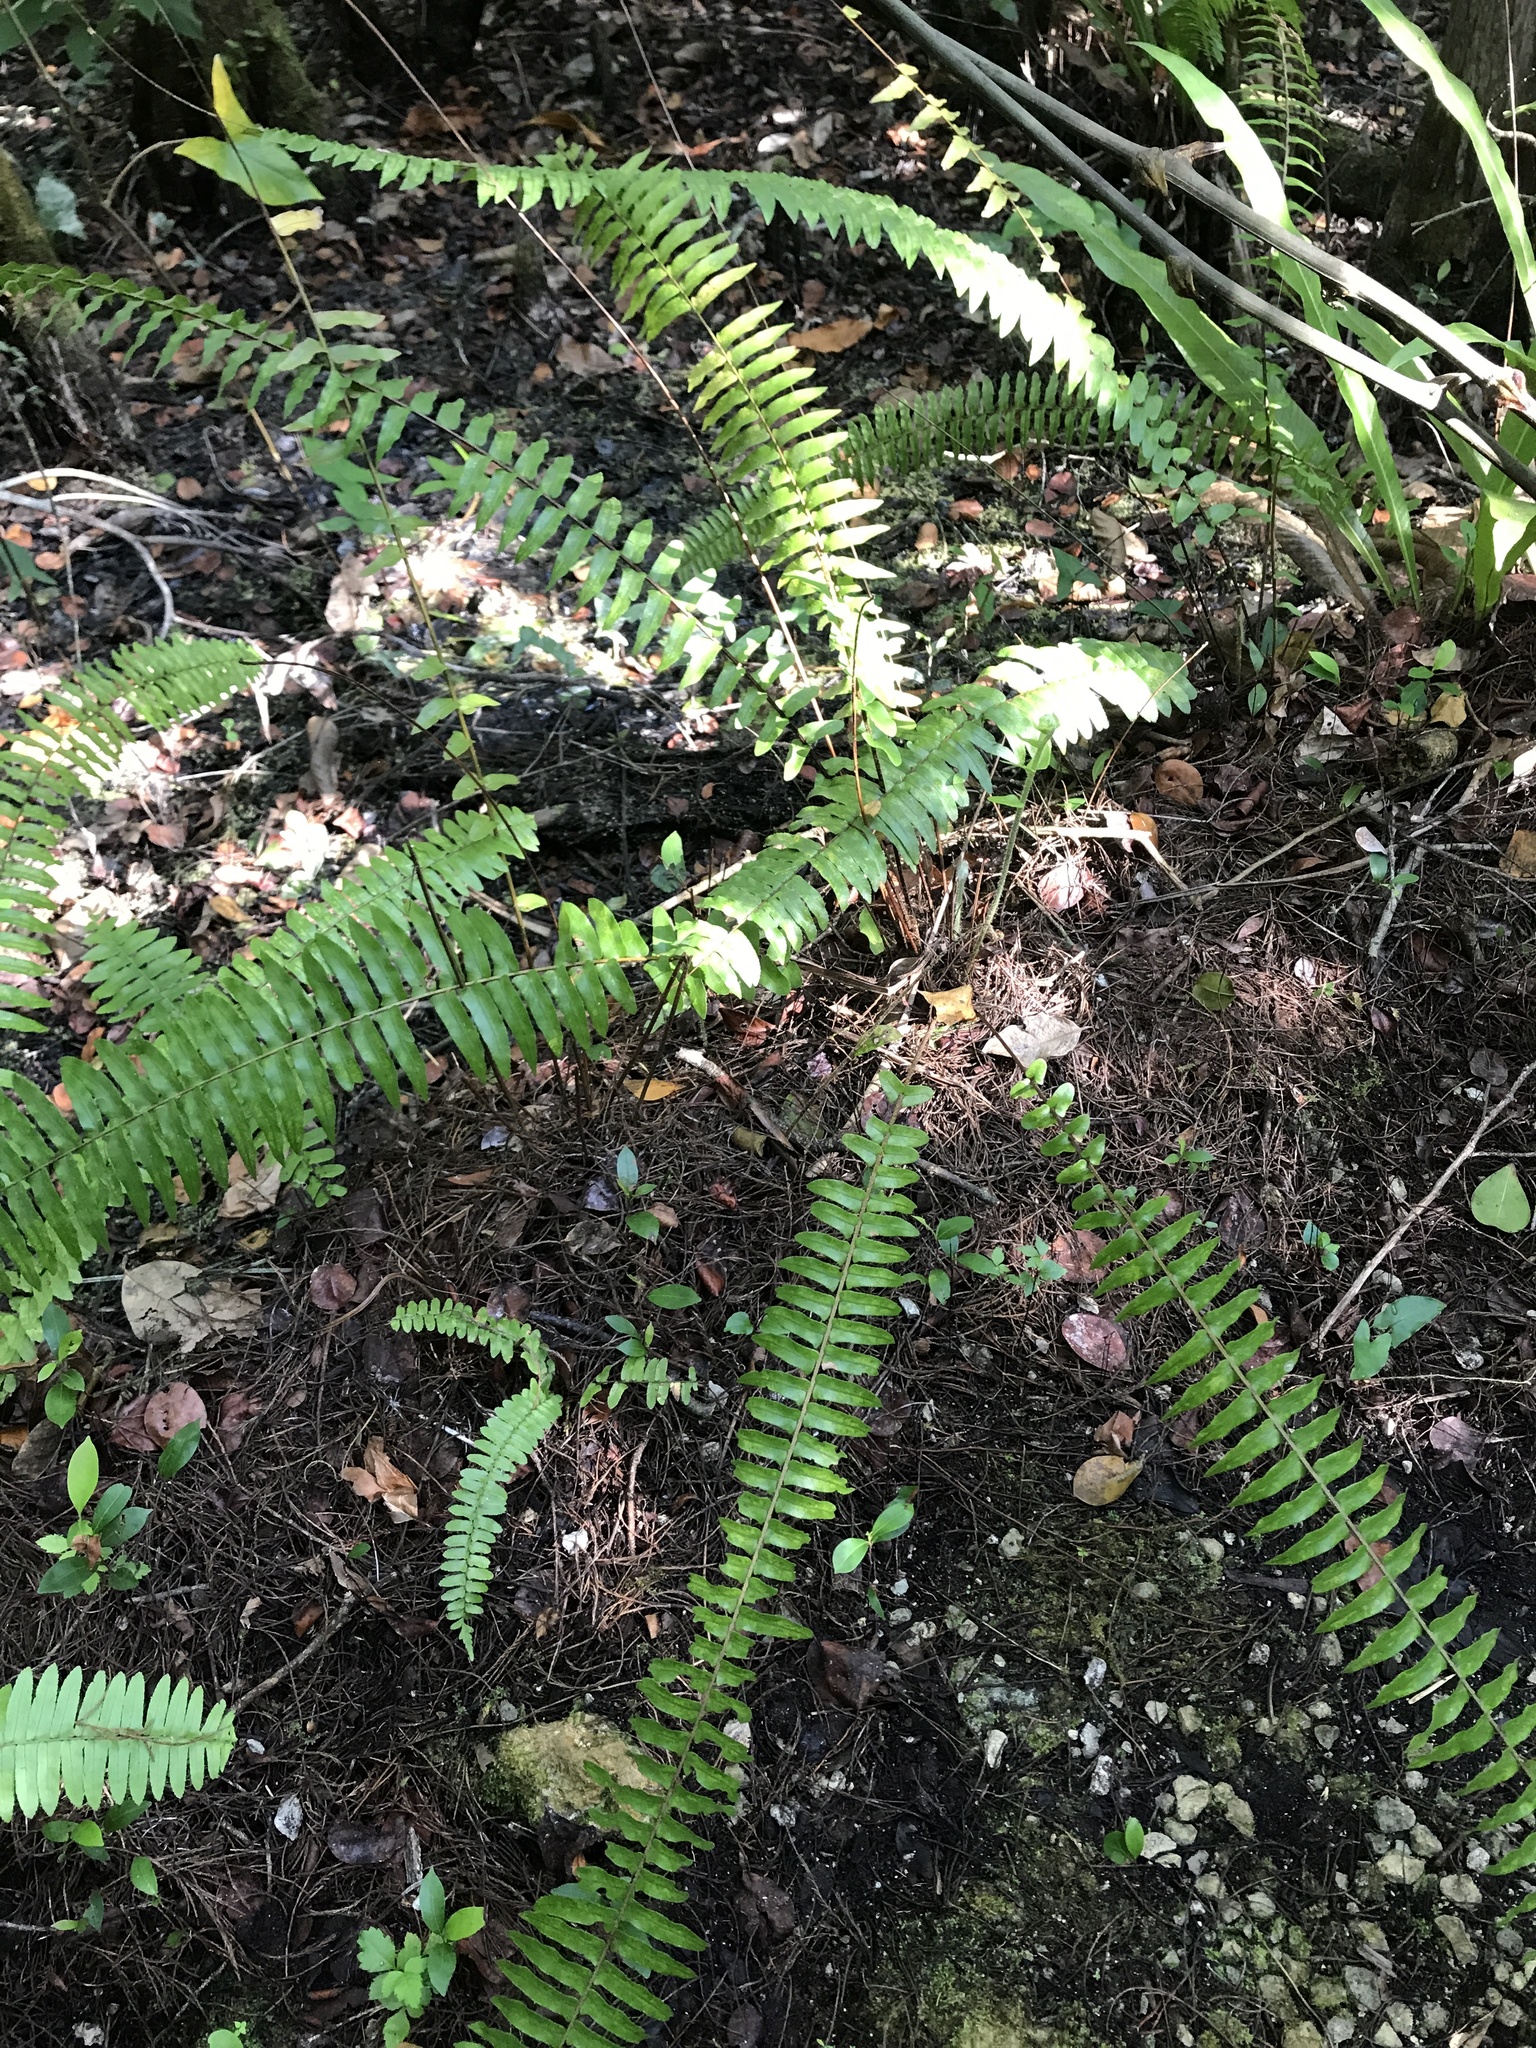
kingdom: Plantae
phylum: Tracheophyta
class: Polypodiopsida
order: Polypodiales
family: Nephrolepidaceae
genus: Nephrolepis
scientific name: Nephrolepis exaltata
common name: Sword fern
